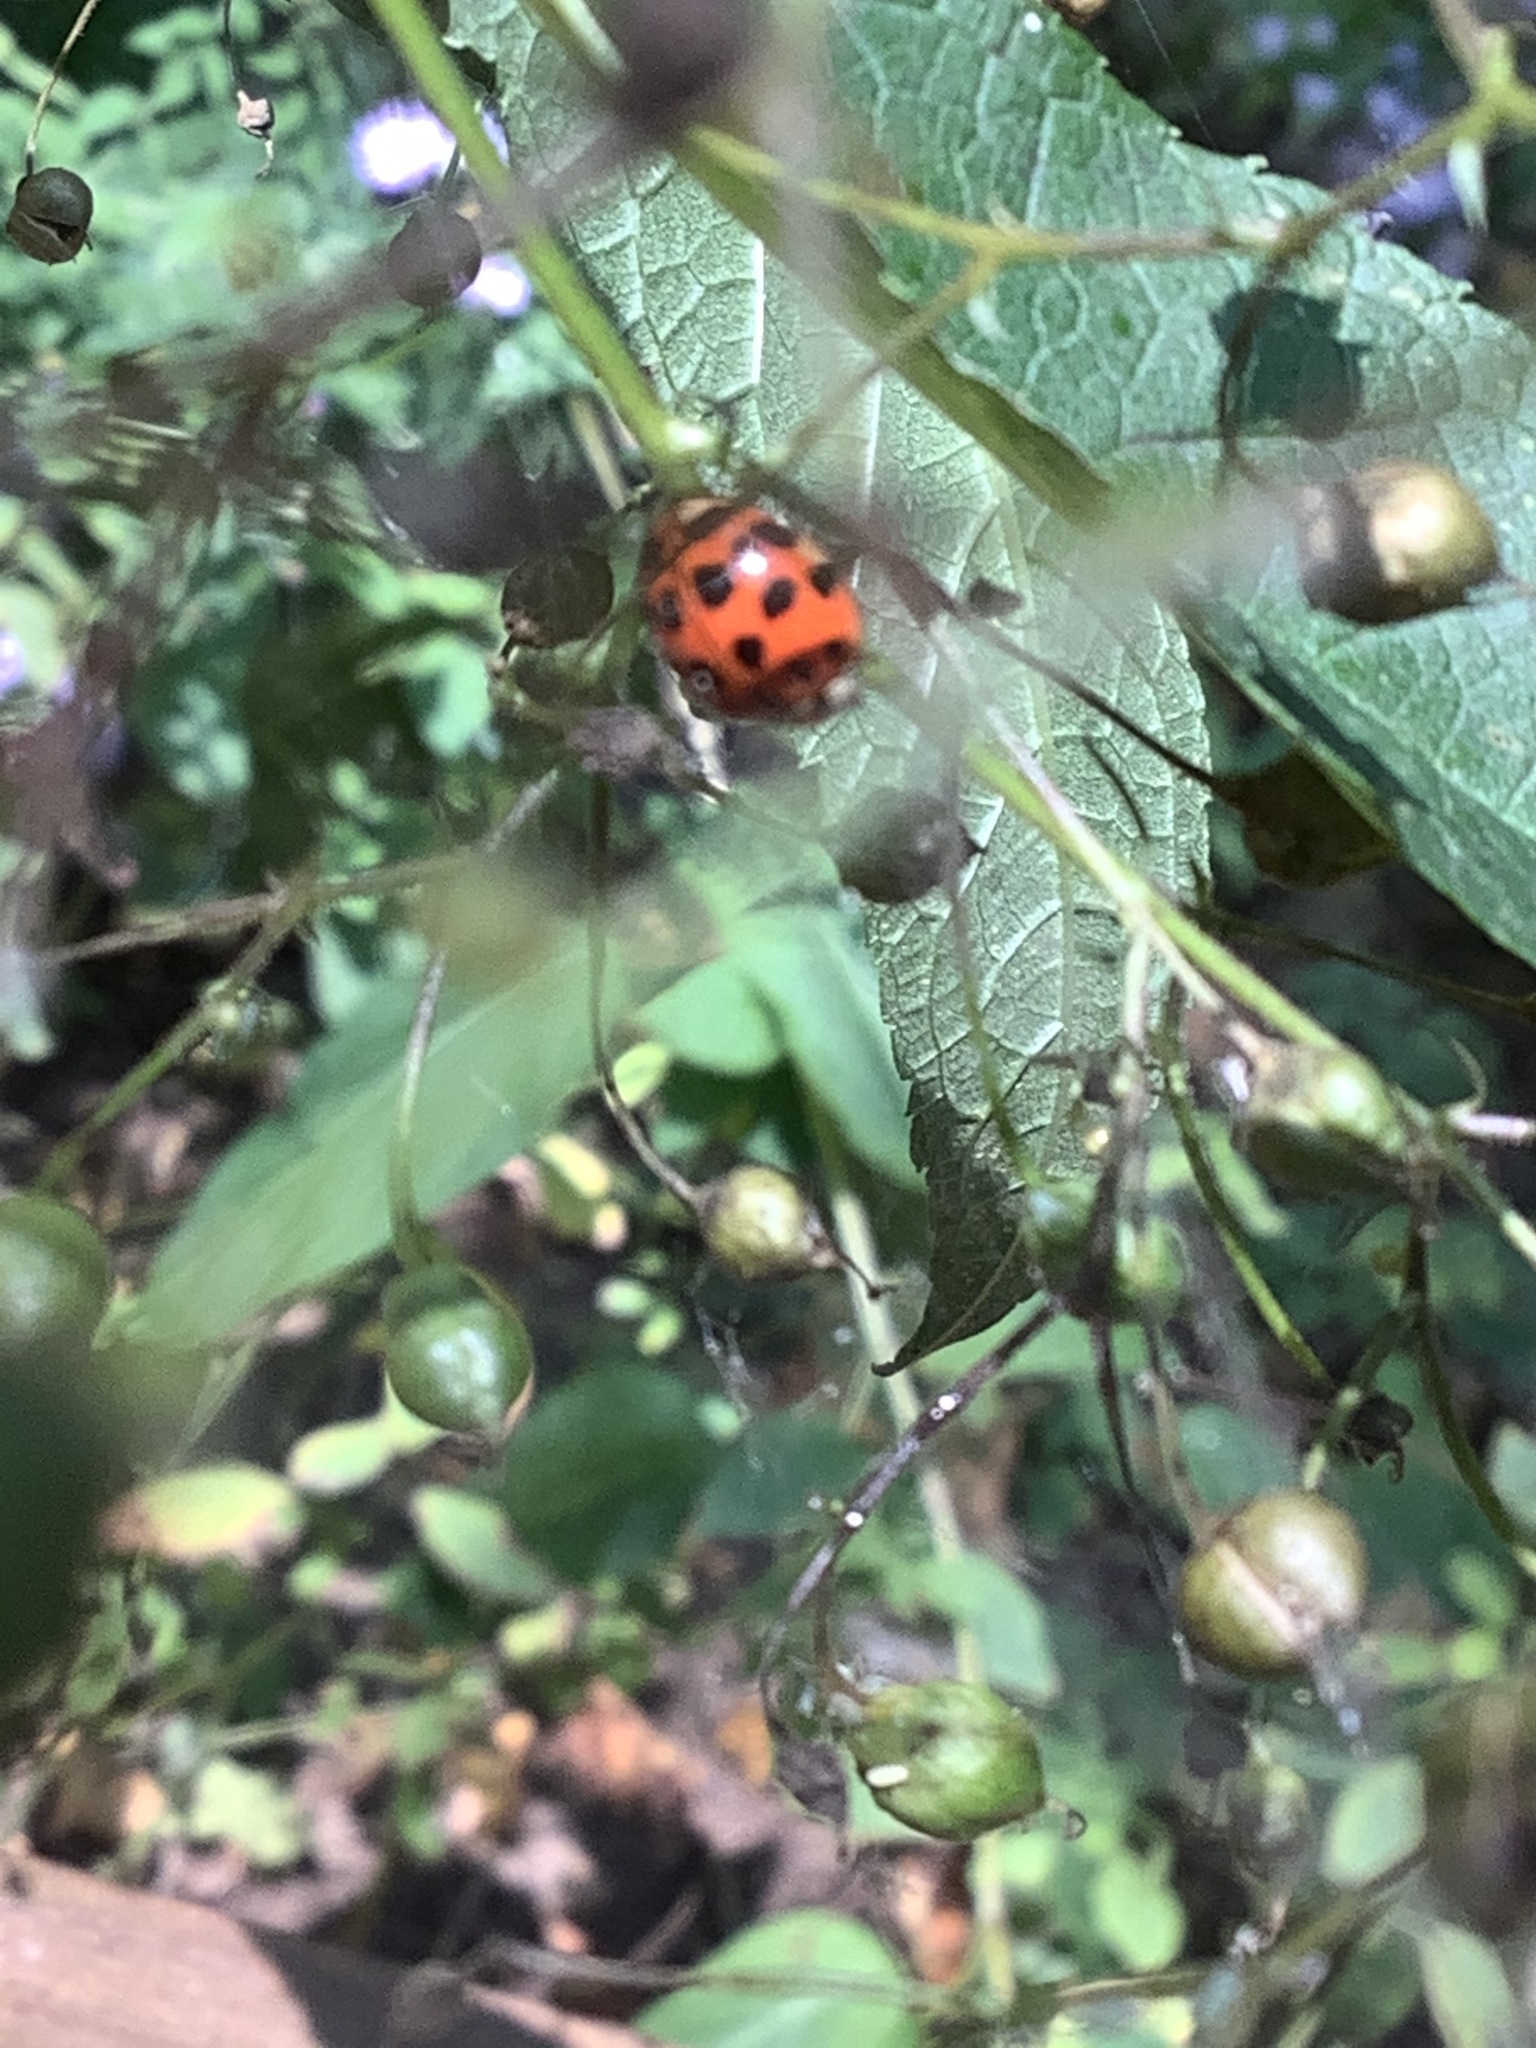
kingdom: Animalia
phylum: Arthropoda
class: Insecta
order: Coleoptera
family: Coccinellidae
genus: Harmonia
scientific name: Harmonia axyridis
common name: Harlequin ladybird
